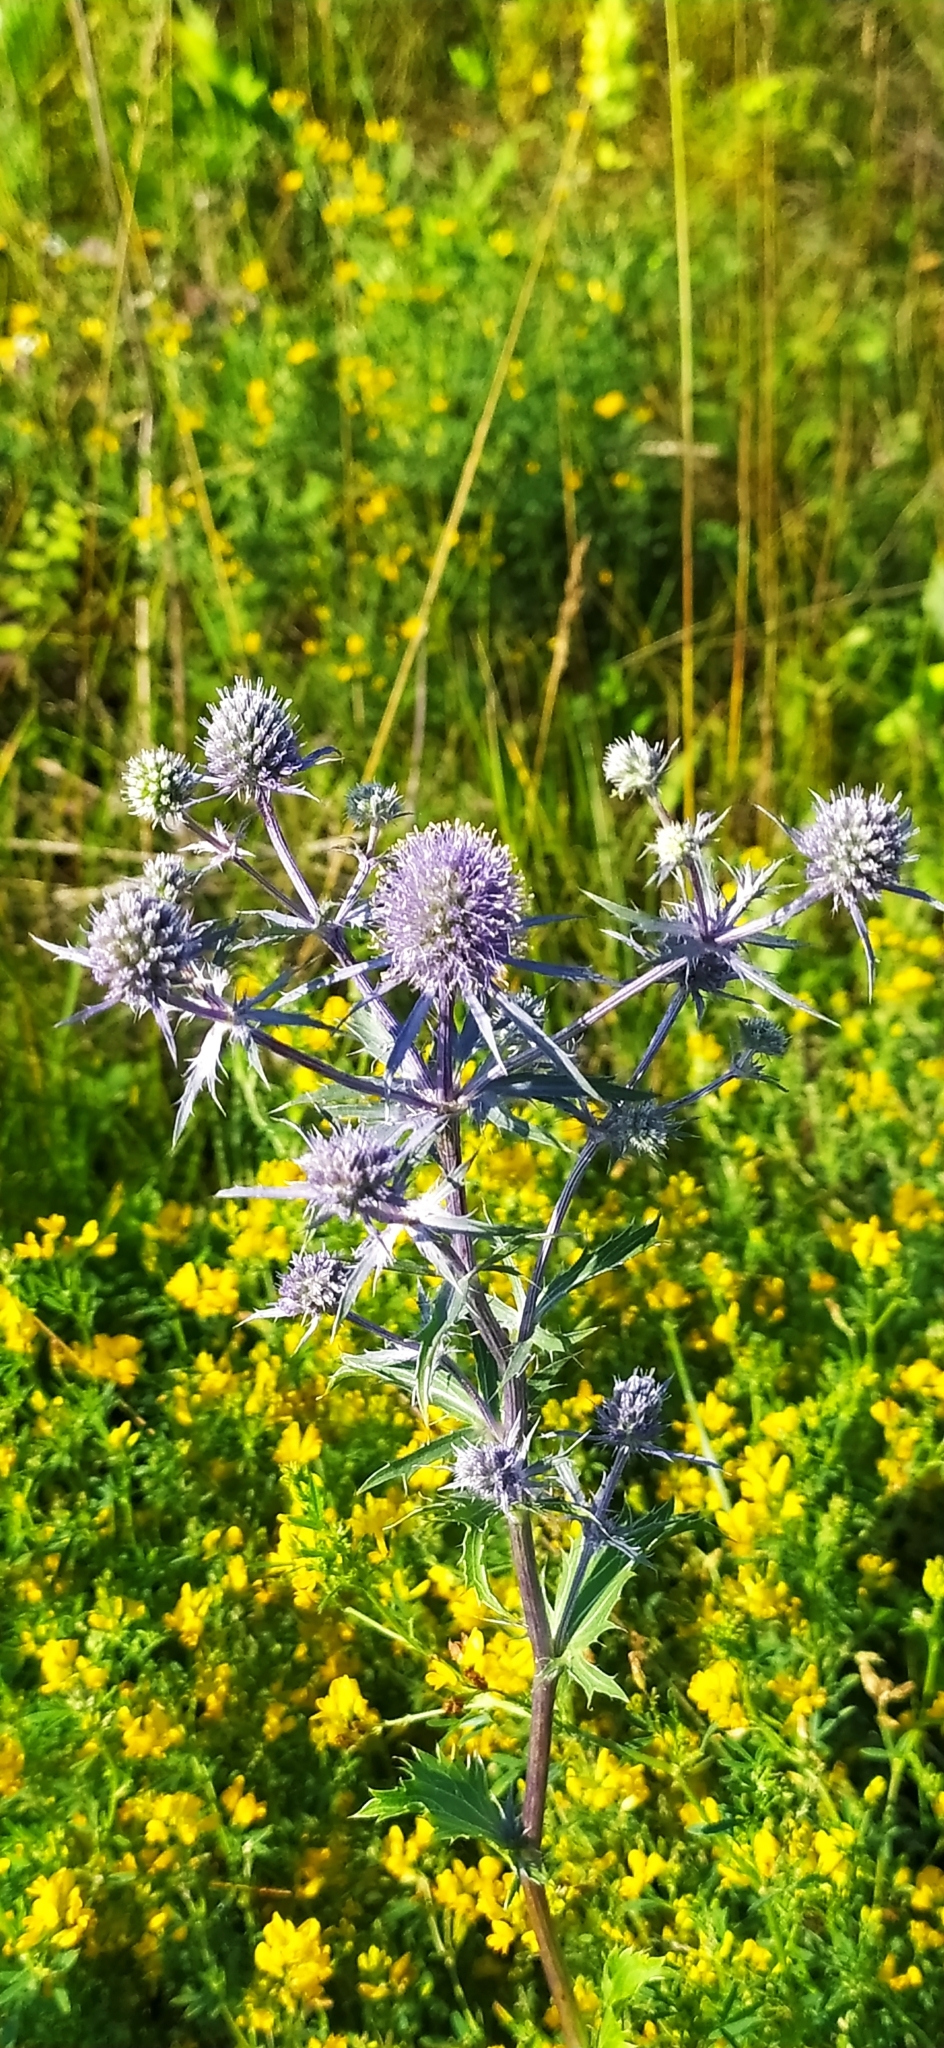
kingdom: Plantae
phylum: Tracheophyta
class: Magnoliopsida
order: Apiales
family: Apiaceae
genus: Eryngium
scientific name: Eryngium planum
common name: Blue eryngo
